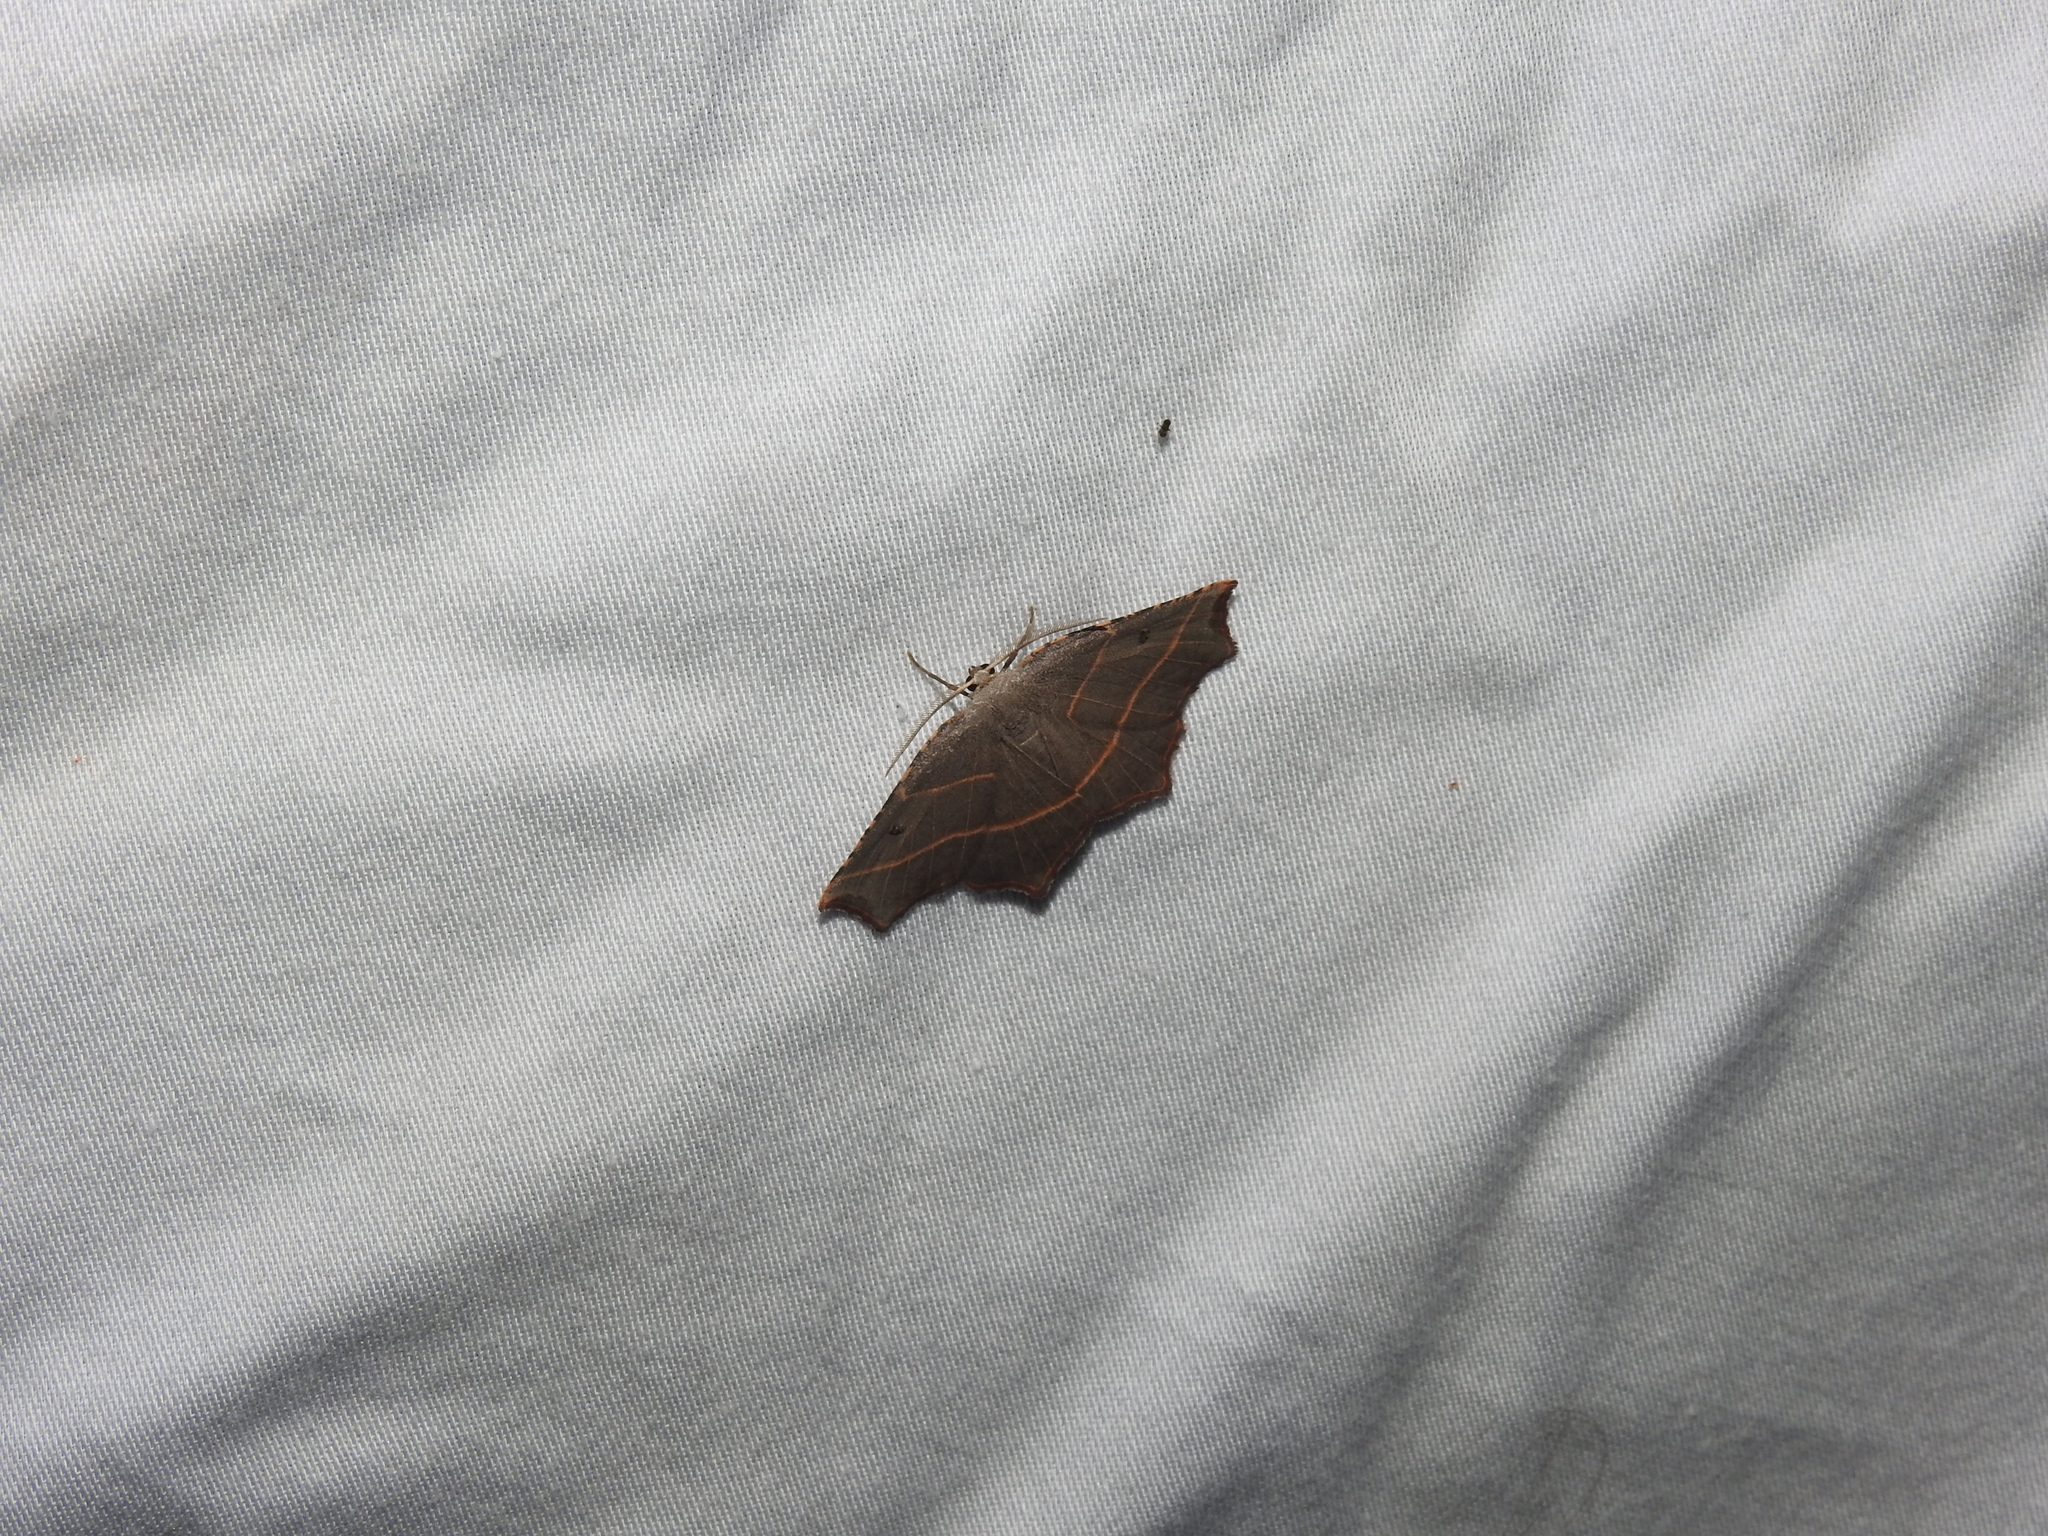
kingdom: Animalia
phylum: Arthropoda
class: Insecta
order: Lepidoptera
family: Geometridae
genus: Metanema
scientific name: Metanema inatomaria
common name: Pale metanema
